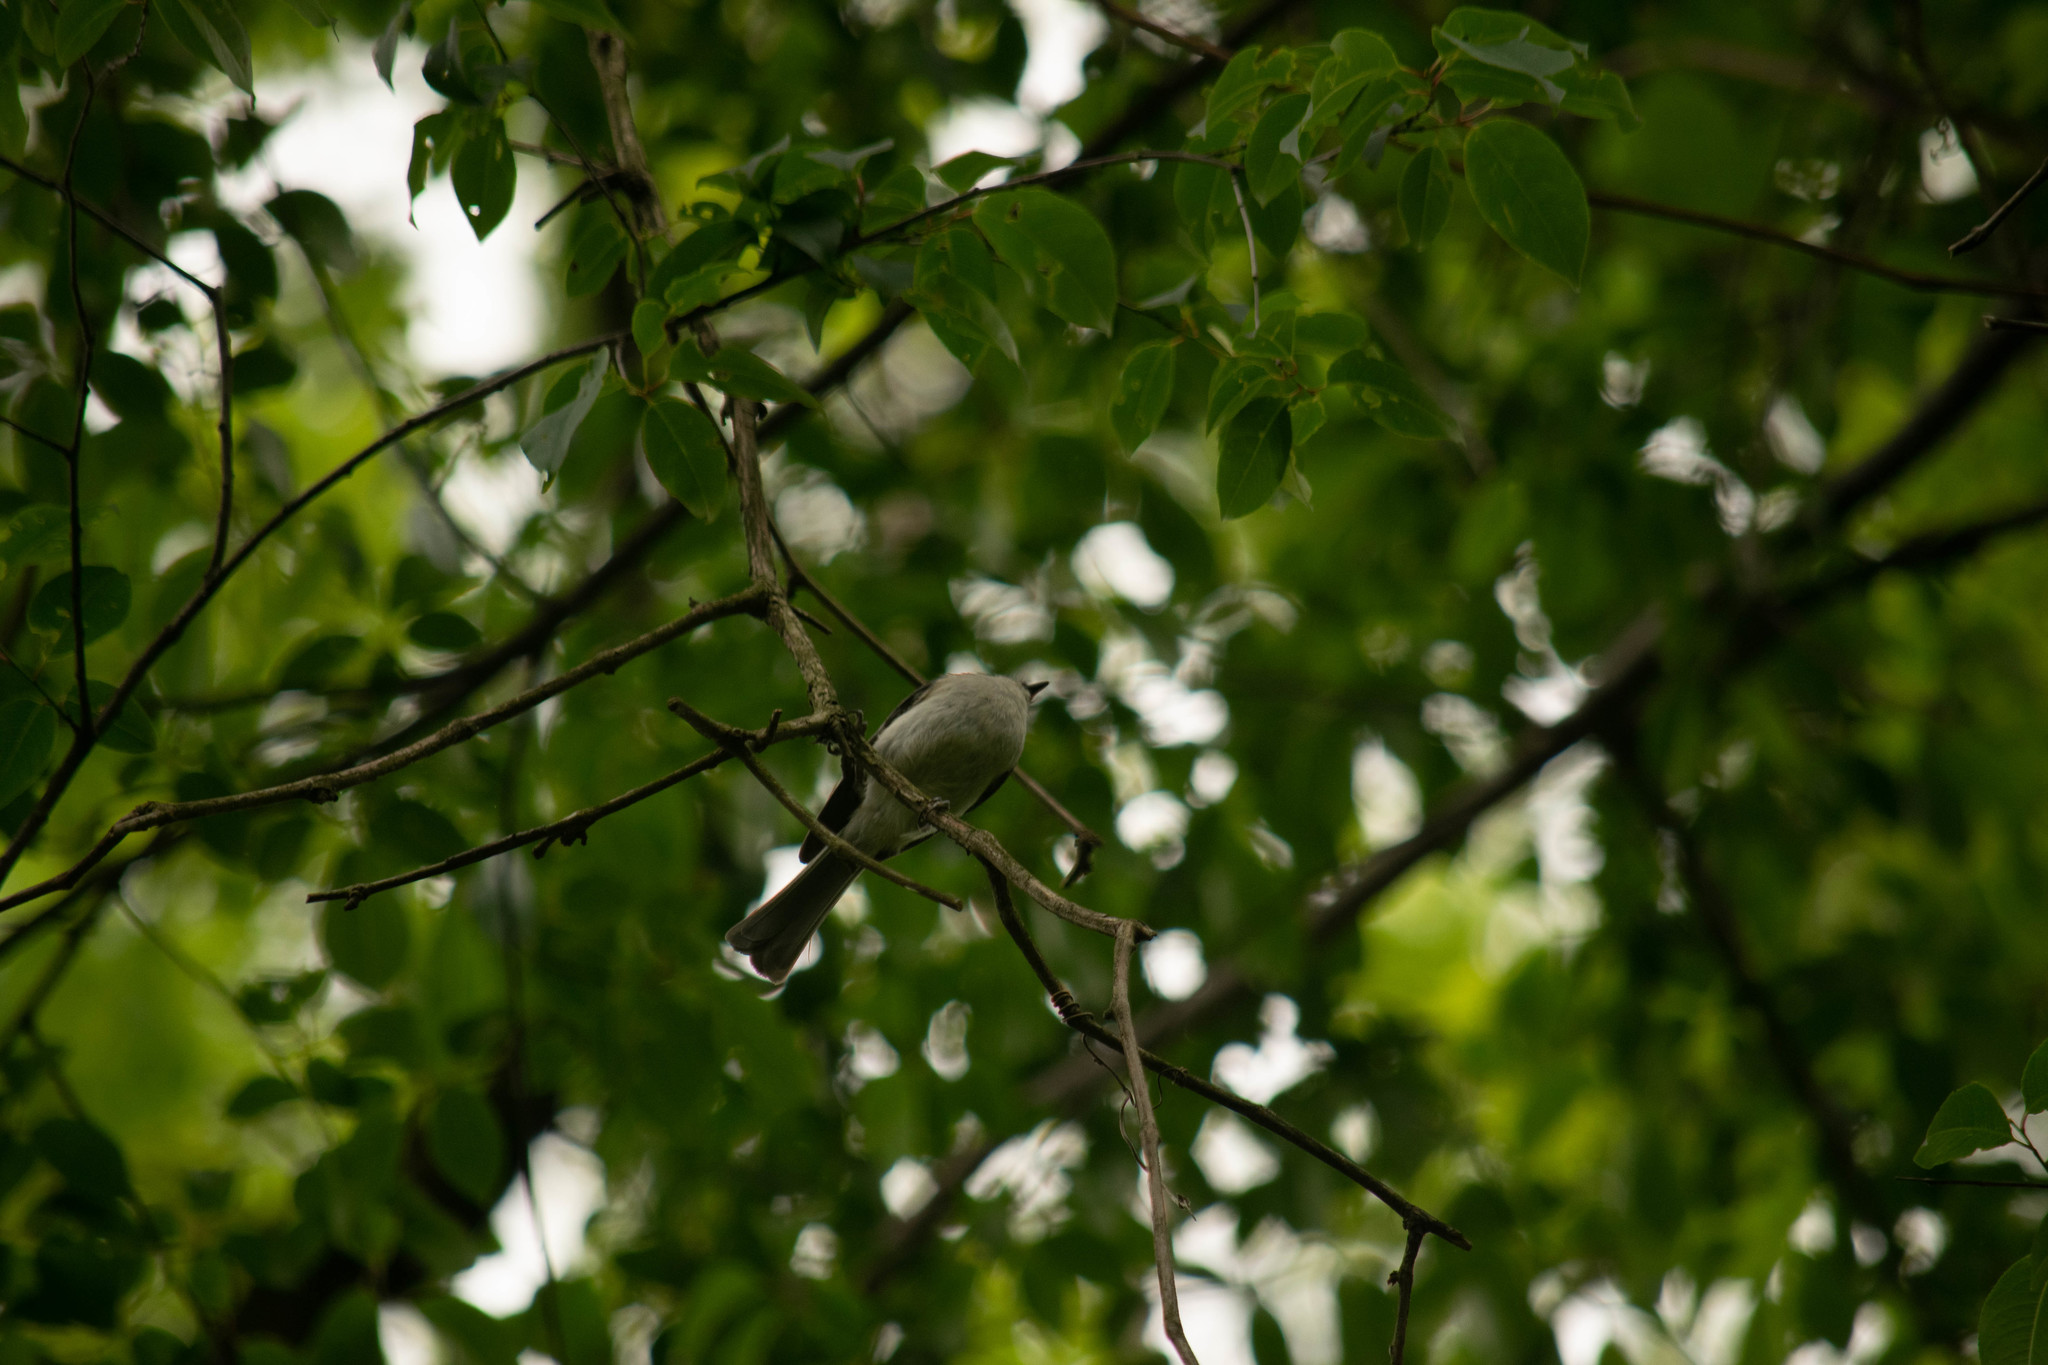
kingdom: Animalia
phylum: Chordata
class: Aves
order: Passeriformes
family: Paridae
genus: Baeolophus
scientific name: Baeolophus bicolor
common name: Tufted titmouse
